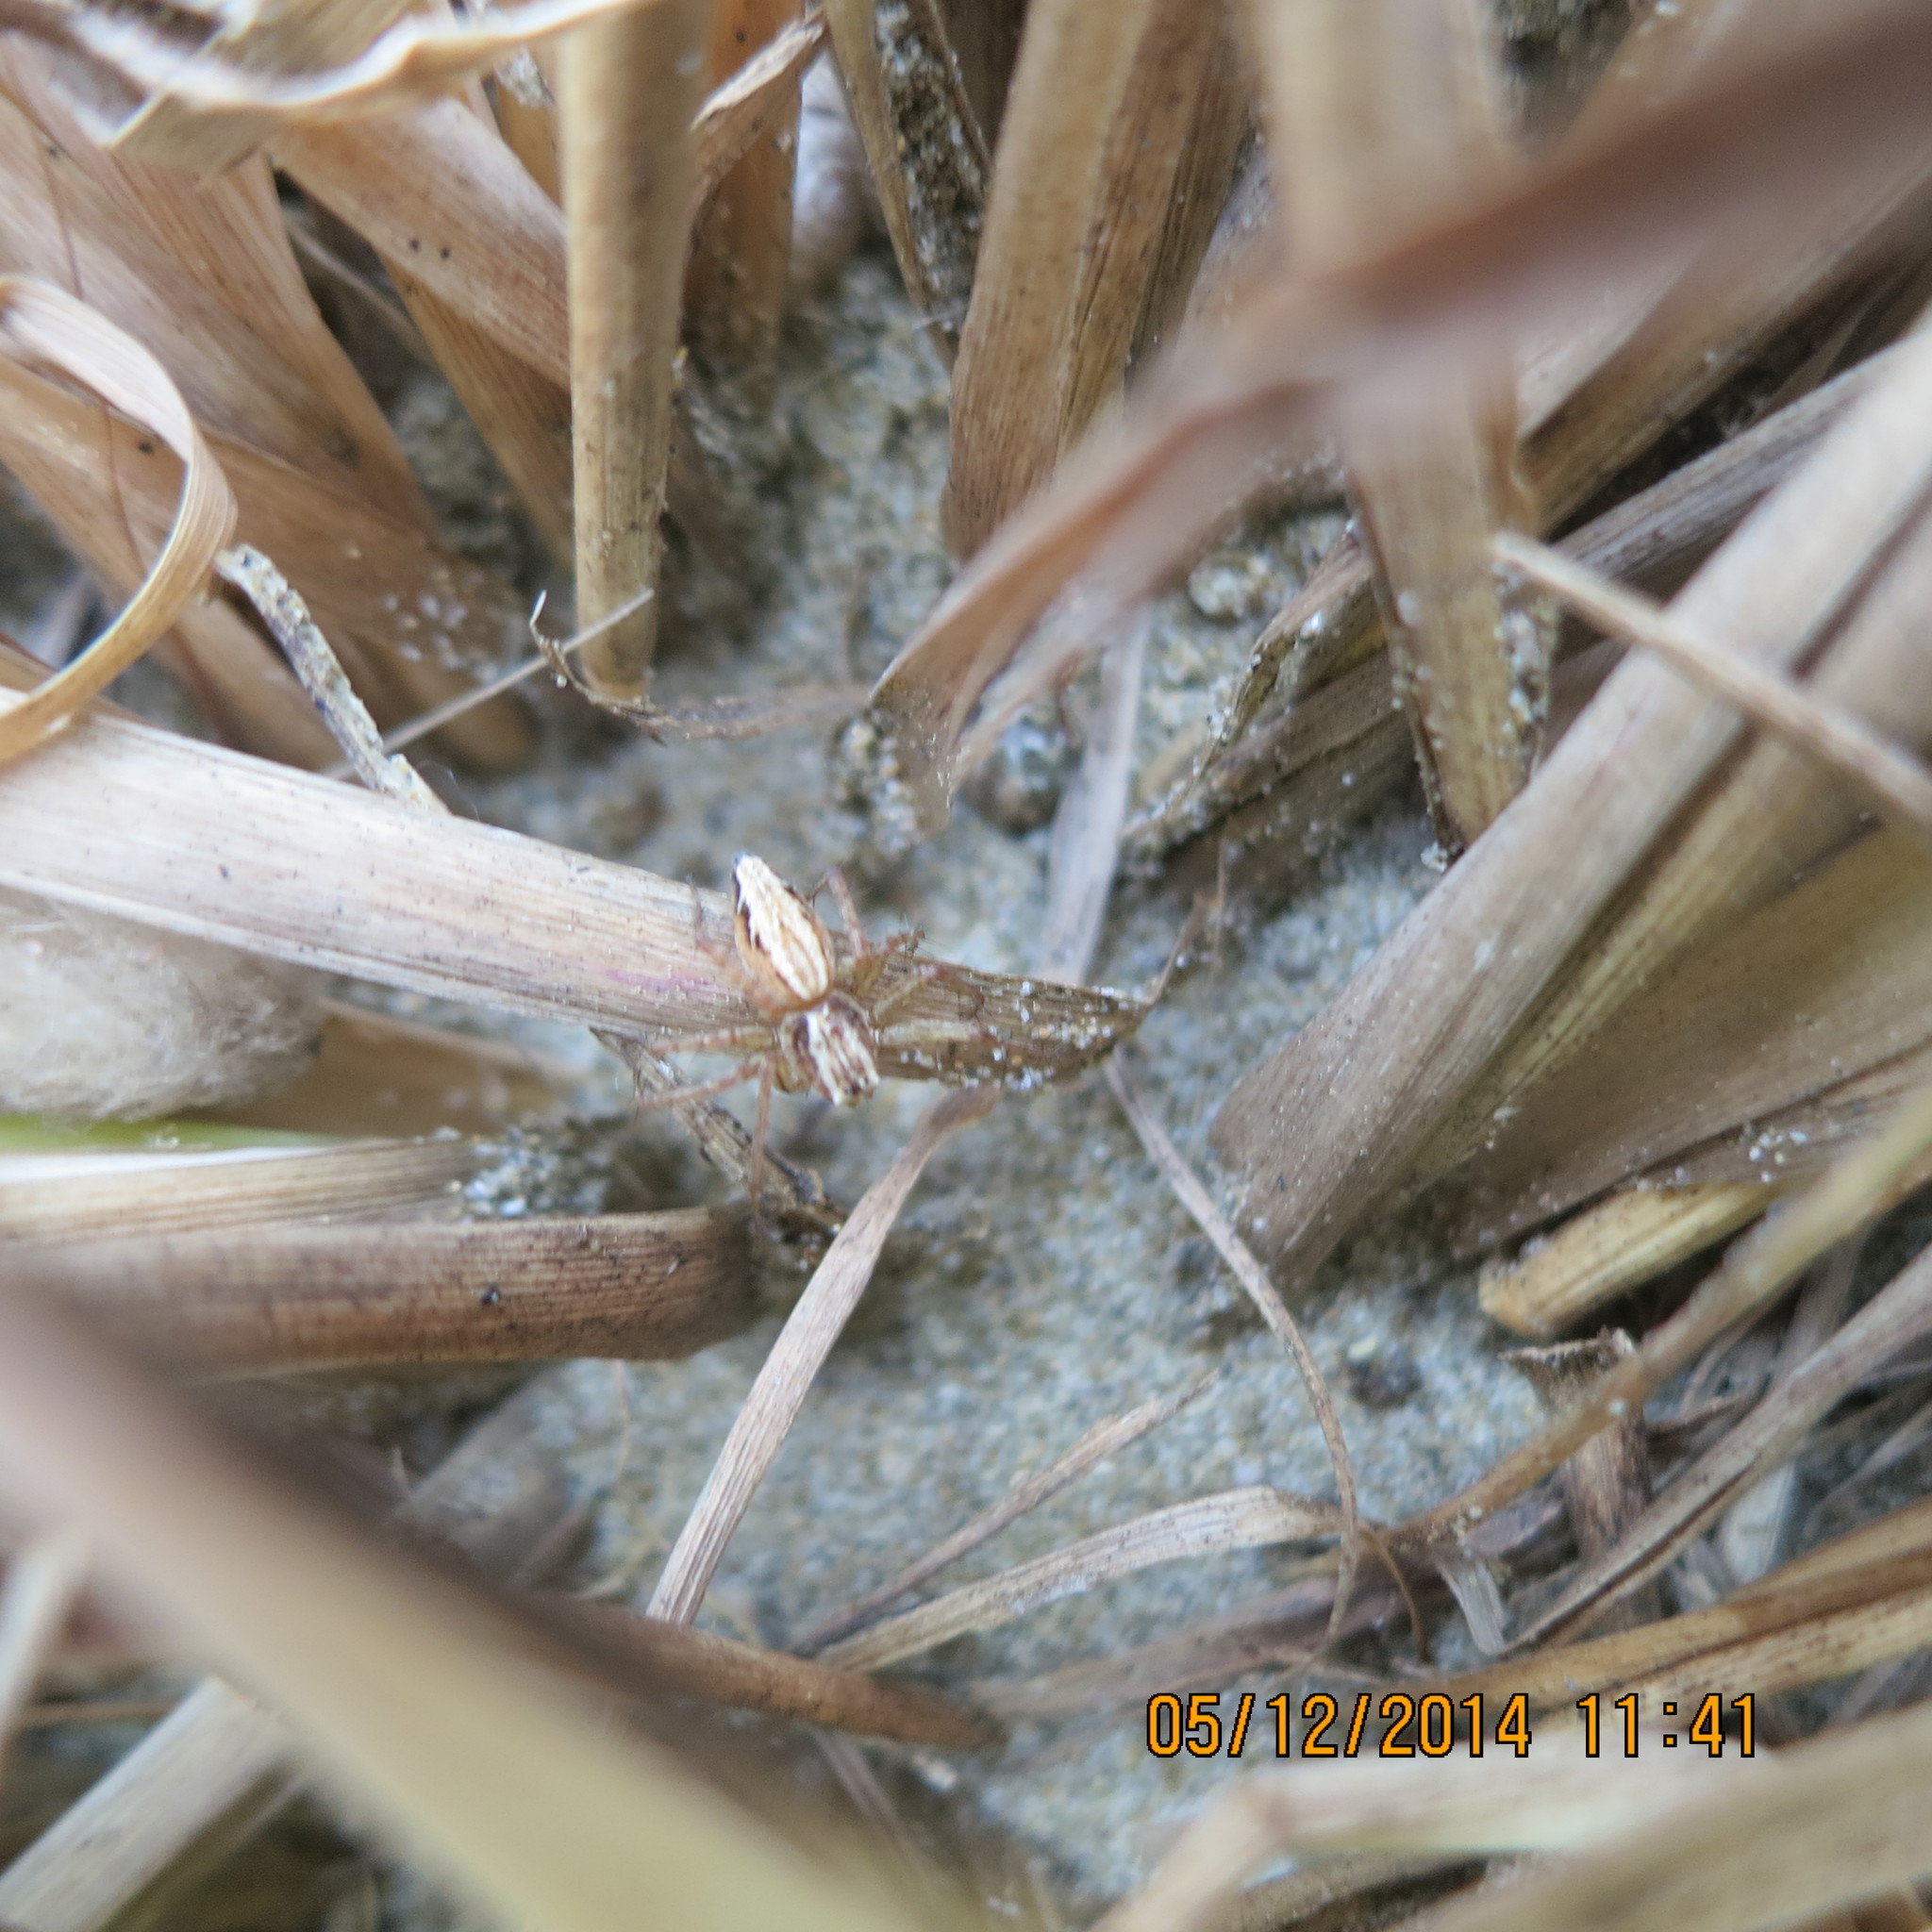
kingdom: Animalia
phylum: Arthropoda
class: Arachnida
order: Araneae
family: Oxyopidae
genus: Oxyopes
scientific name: Oxyopes gracilipes
